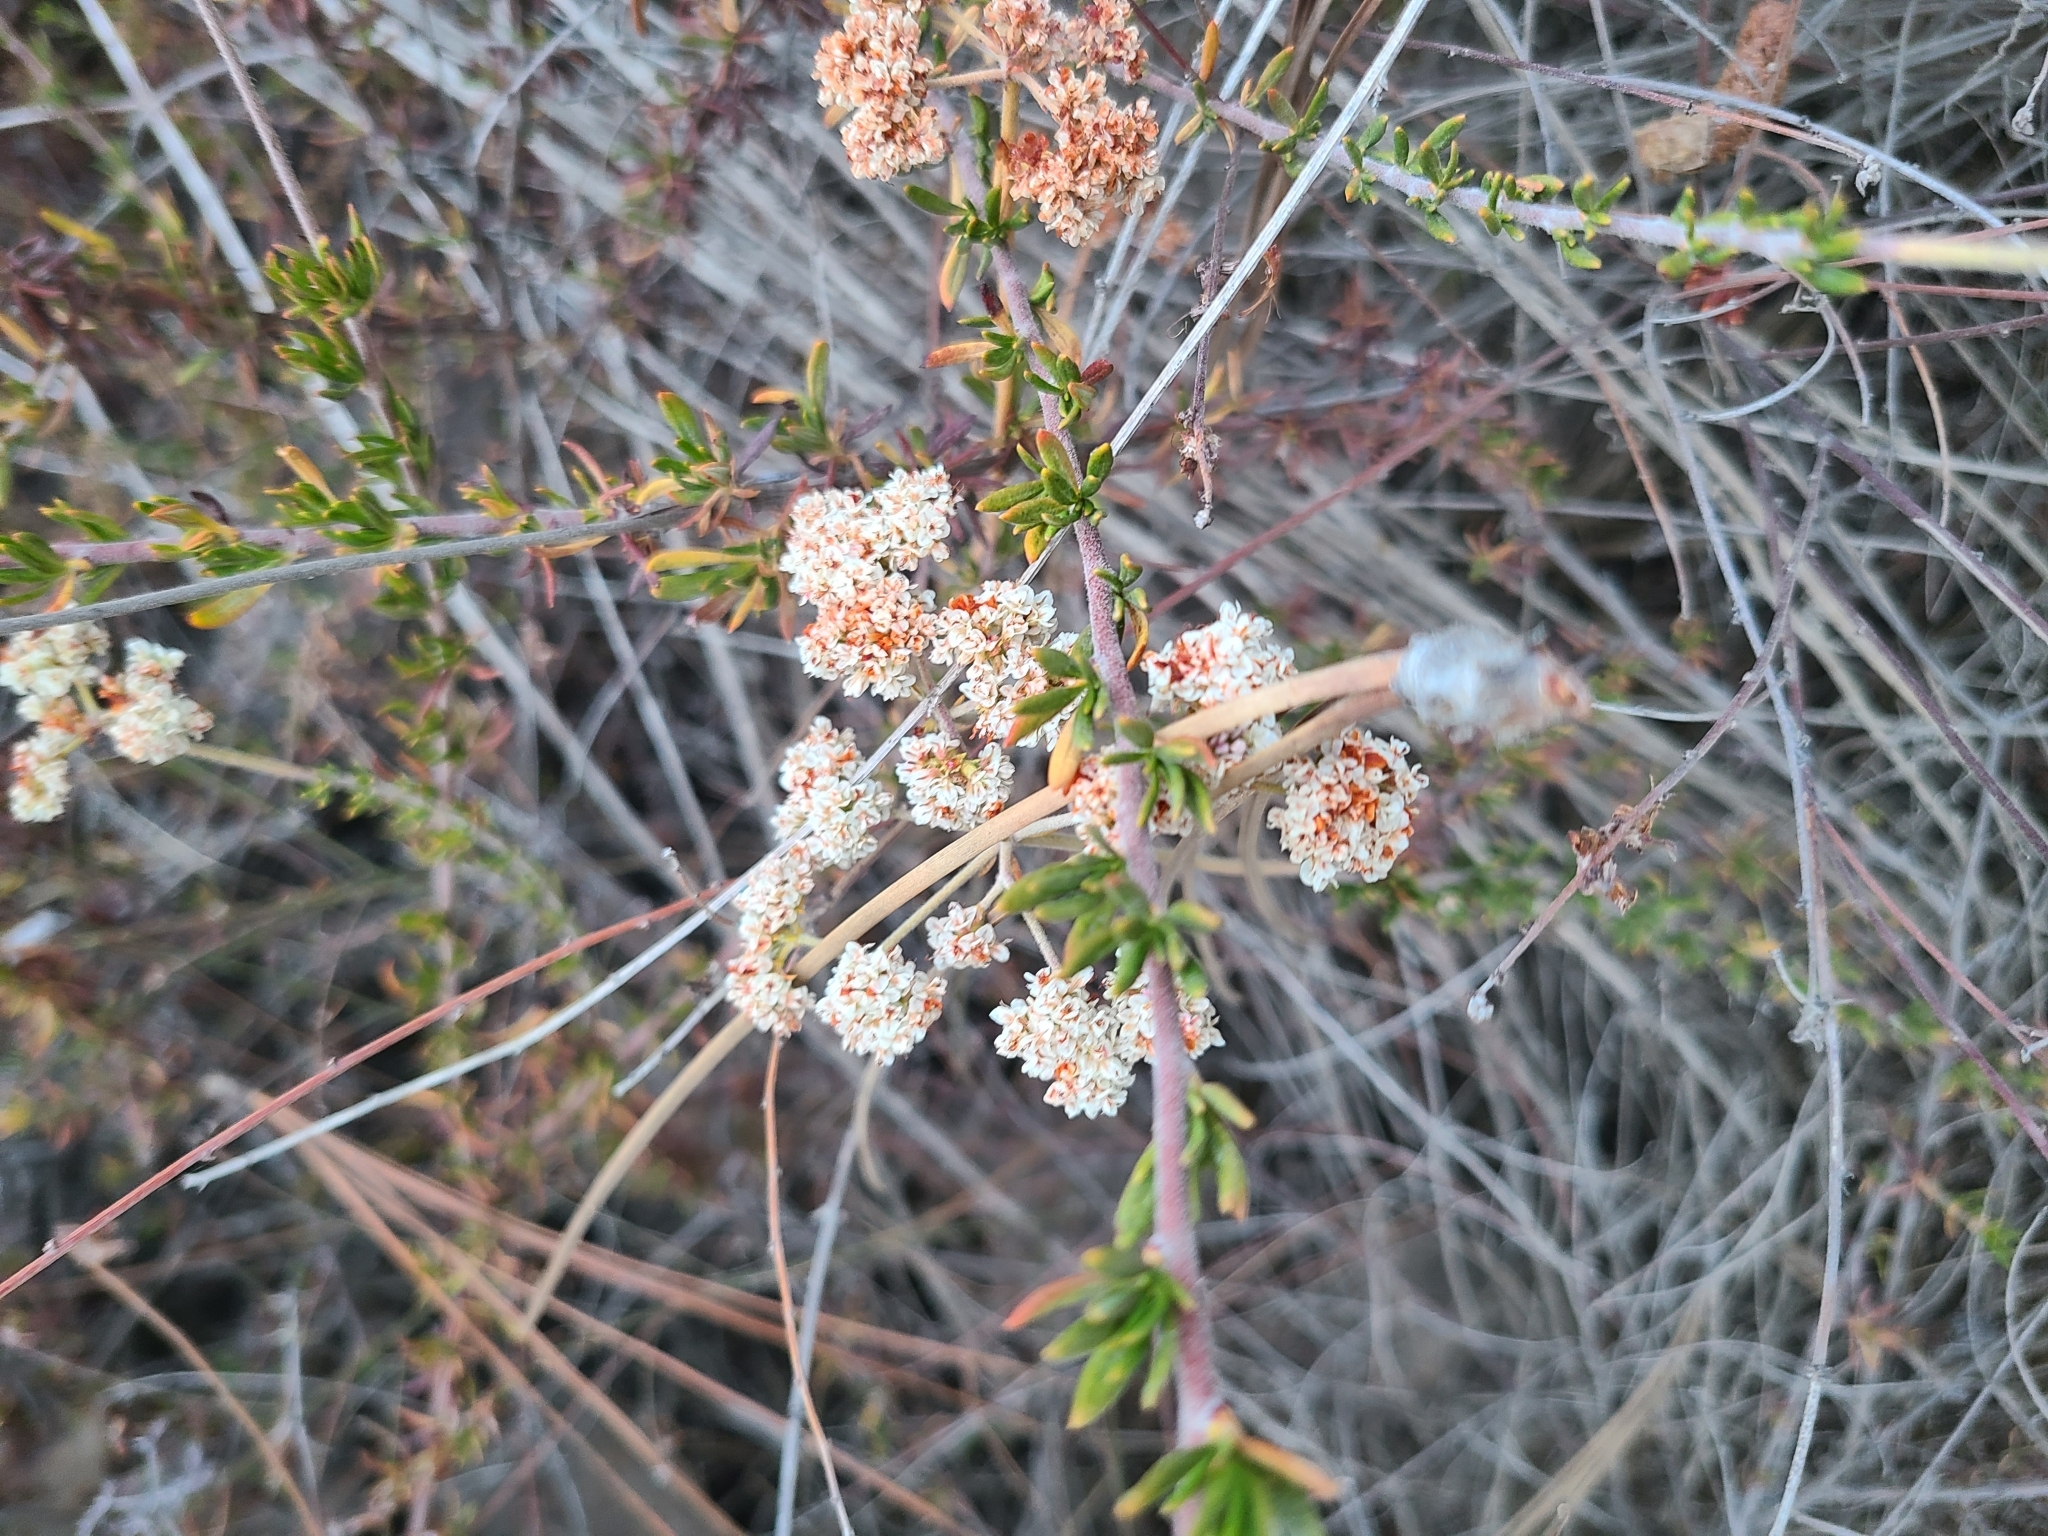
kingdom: Plantae
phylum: Tracheophyta
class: Magnoliopsida
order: Caryophyllales
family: Polygonaceae
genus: Eriogonum
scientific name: Eriogonum fasciculatum
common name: California wild buckwheat
